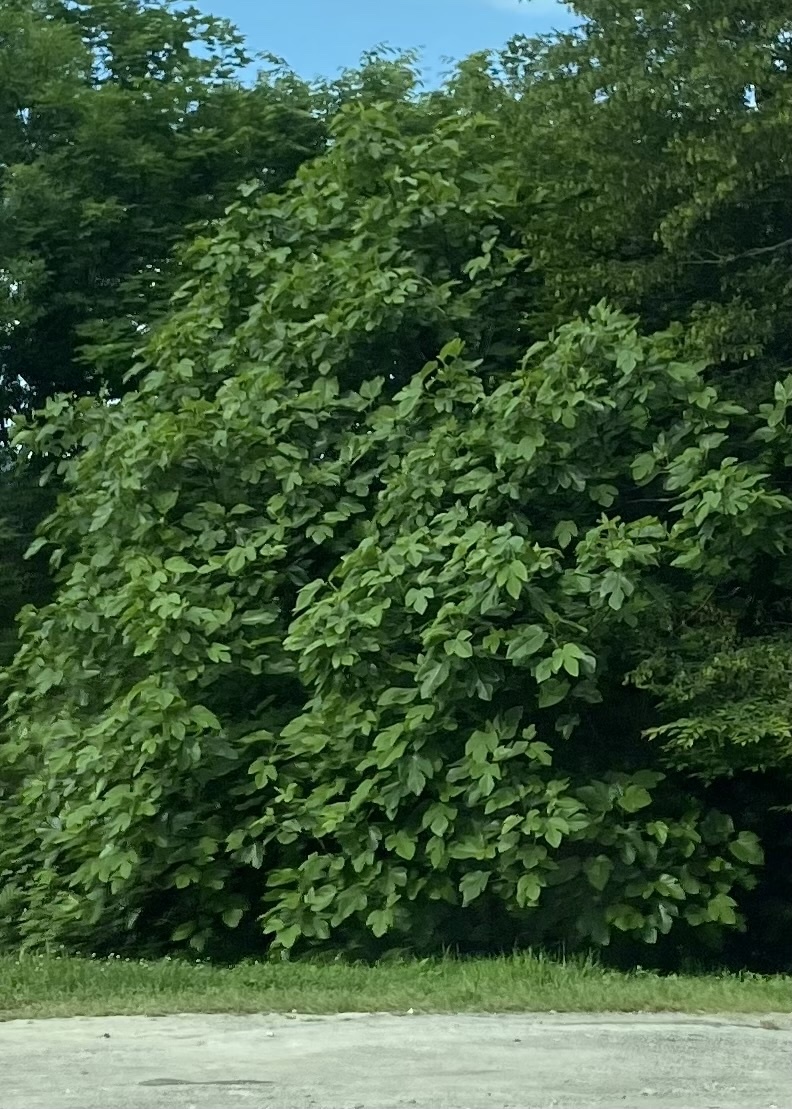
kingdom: Plantae
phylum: Tracheophyta
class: Magnoliopsida
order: Rosales
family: Moraceae
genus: Ficus
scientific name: Ficus carica
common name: Fig
